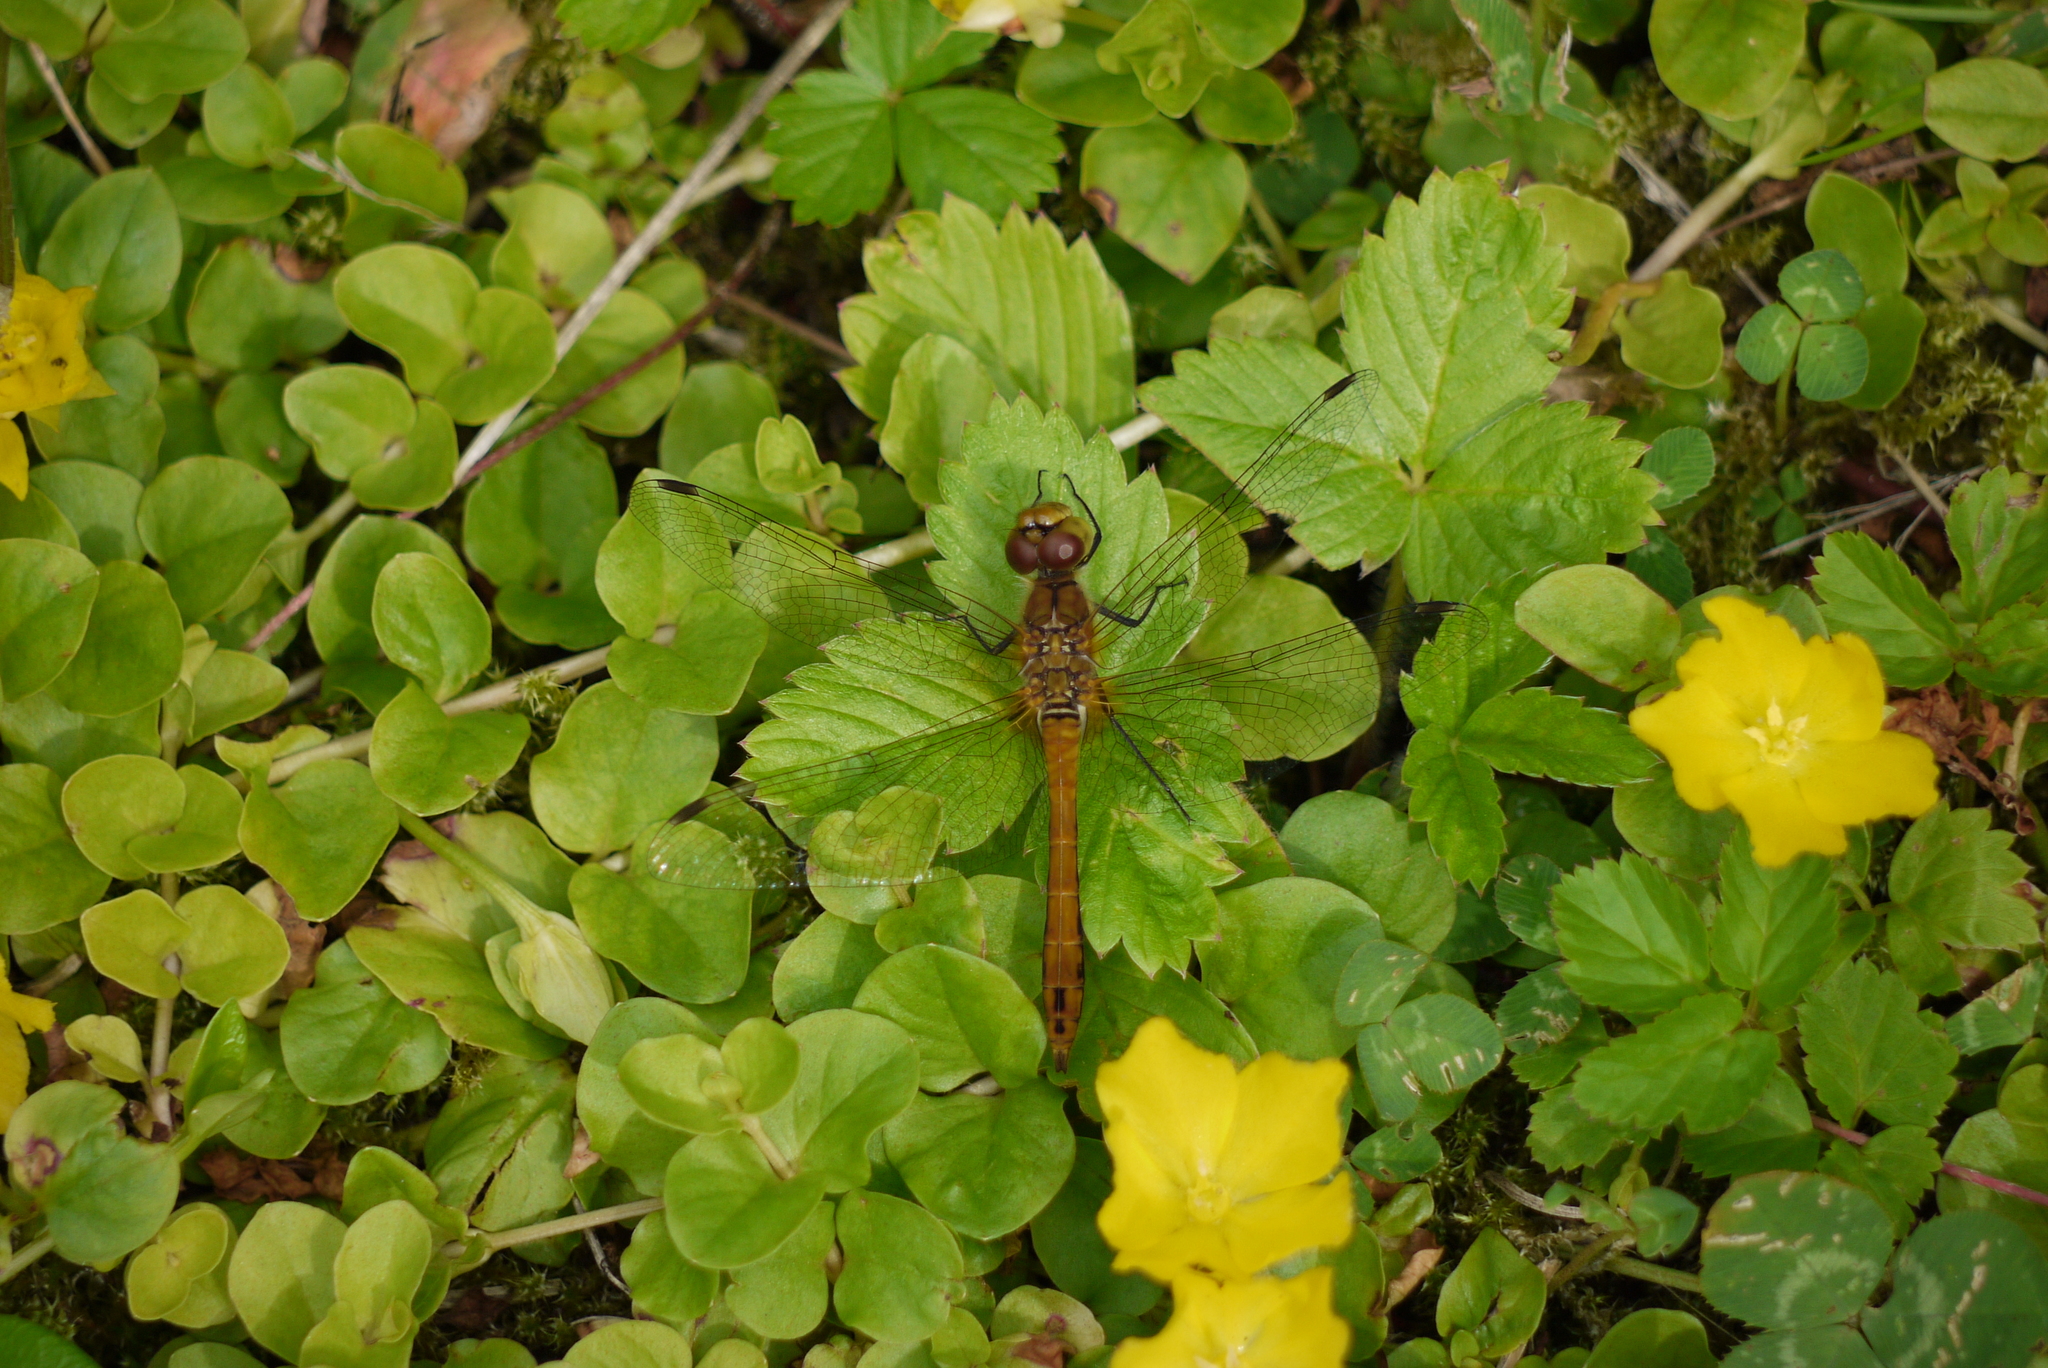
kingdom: Animalia
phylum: Arthropoda
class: Insecta
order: Odonata
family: Libellulidae
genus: Sympetrum
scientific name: Sympetrum sanguineum
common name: Ruddy darter
